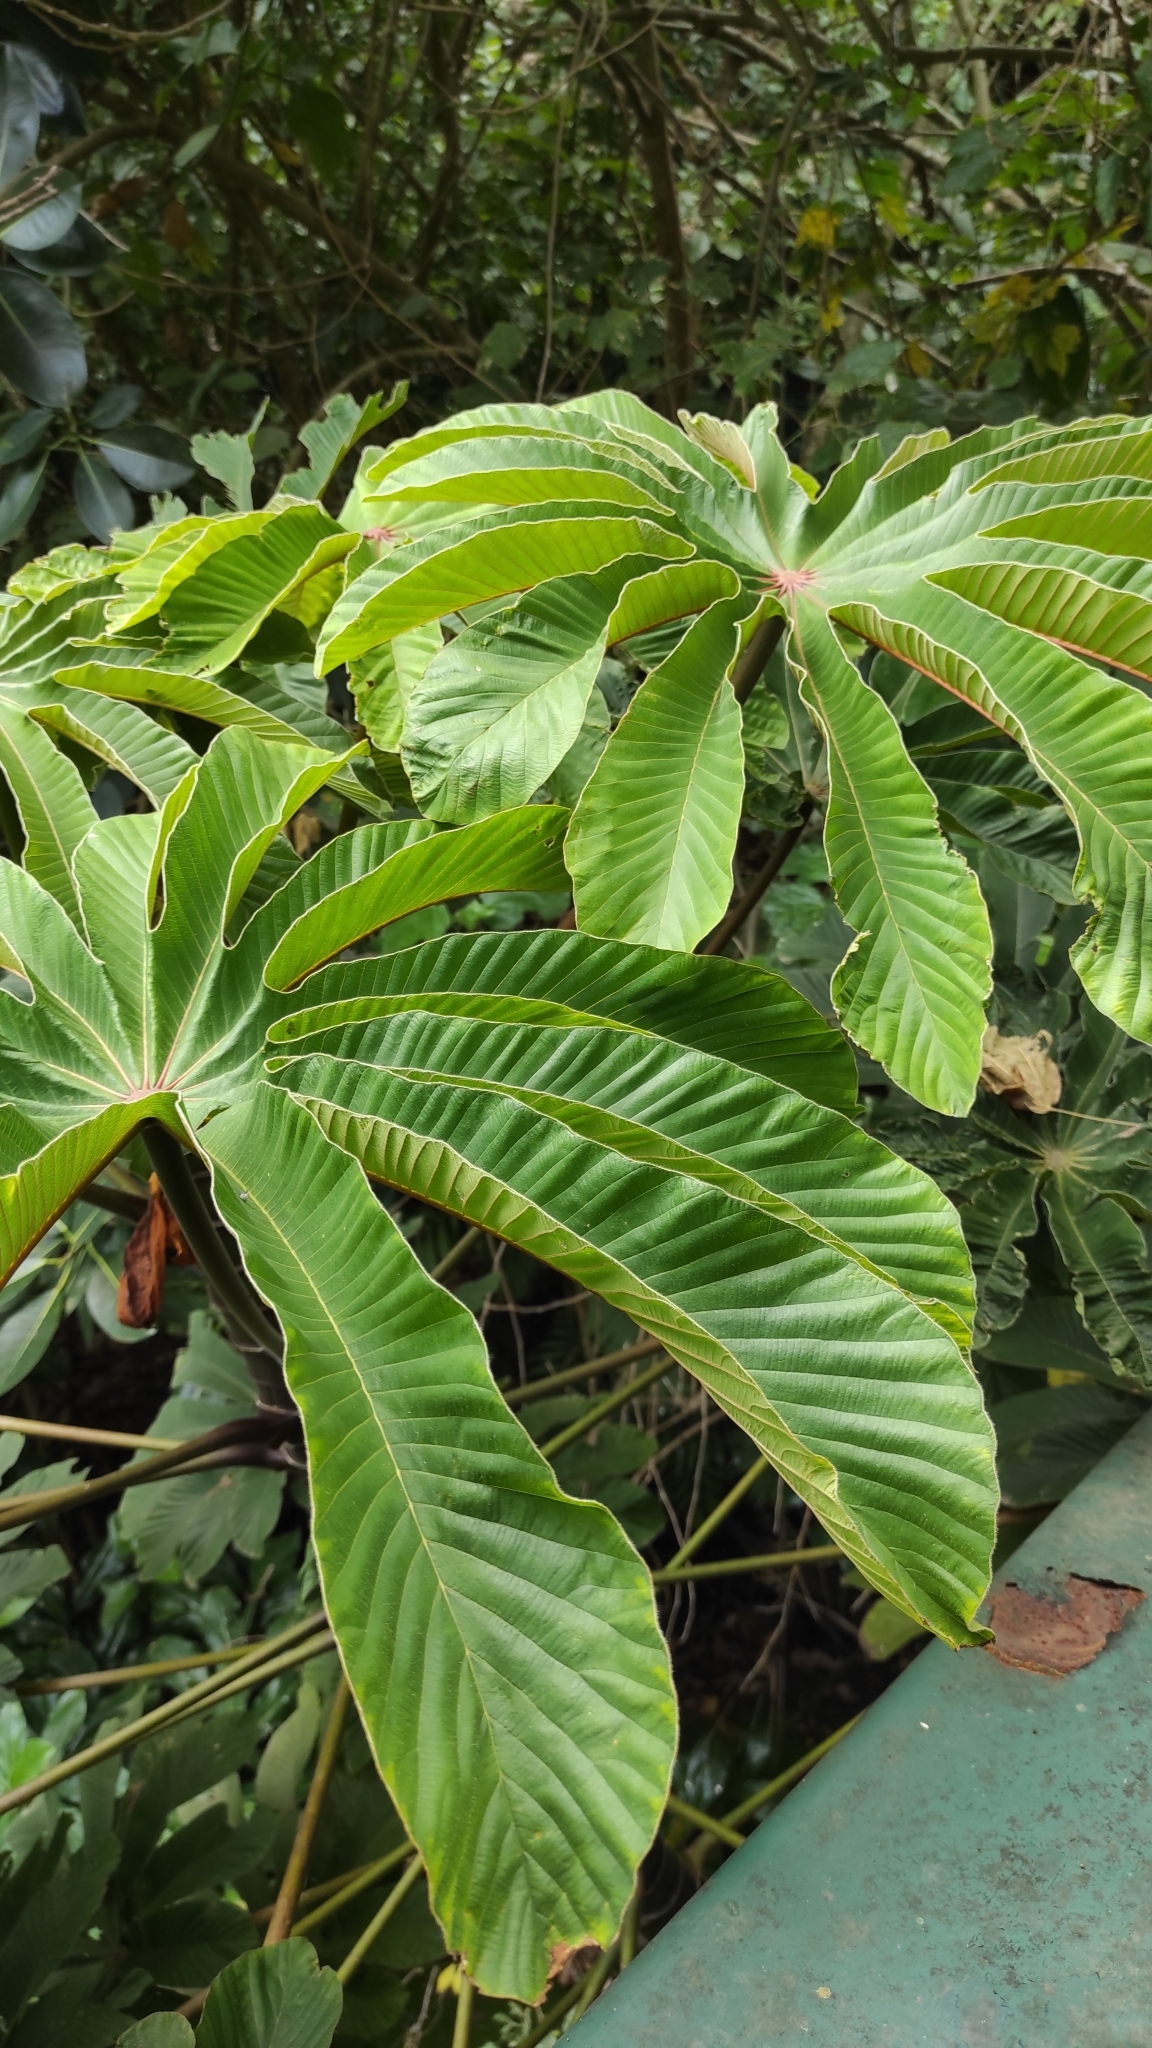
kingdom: Plantae
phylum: Tracheophyta
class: Magnoliopsida
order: Rosales
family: Urticaceae
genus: Cecropia
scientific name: Cecropia obtusifolia
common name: Trumpet tree
